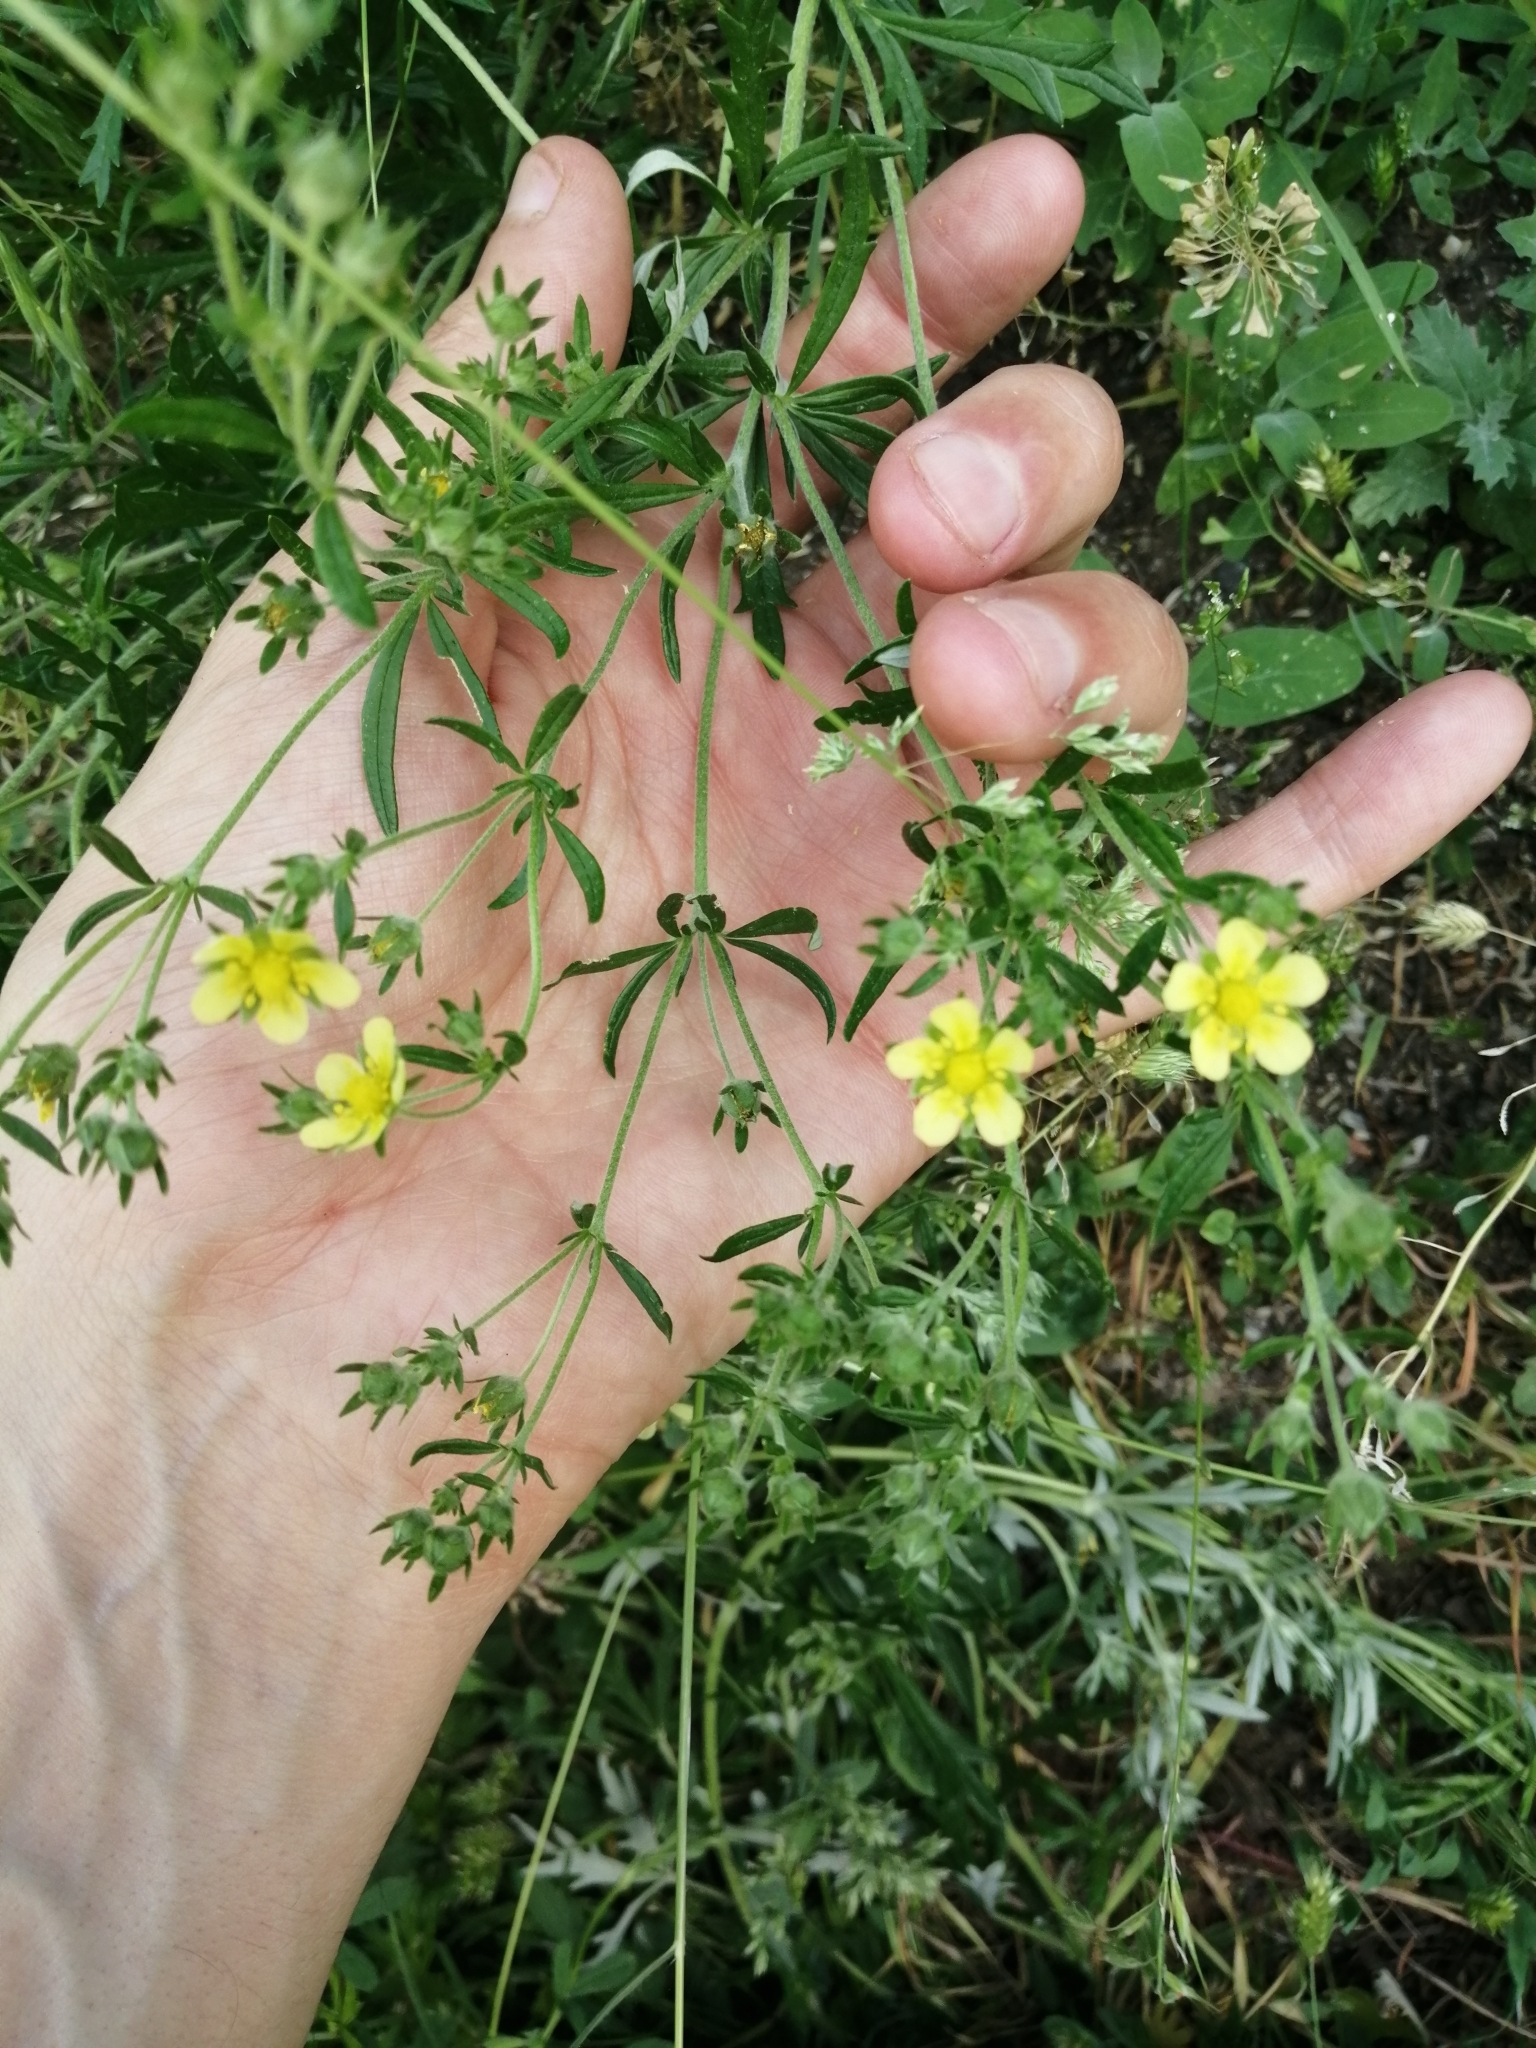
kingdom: Plantae
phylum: Tracheophyta
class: Magnoliopsida
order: Rosales
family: Rosaceae
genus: Potentilla
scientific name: Potentilla argentea
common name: Hoary cinquefoil
